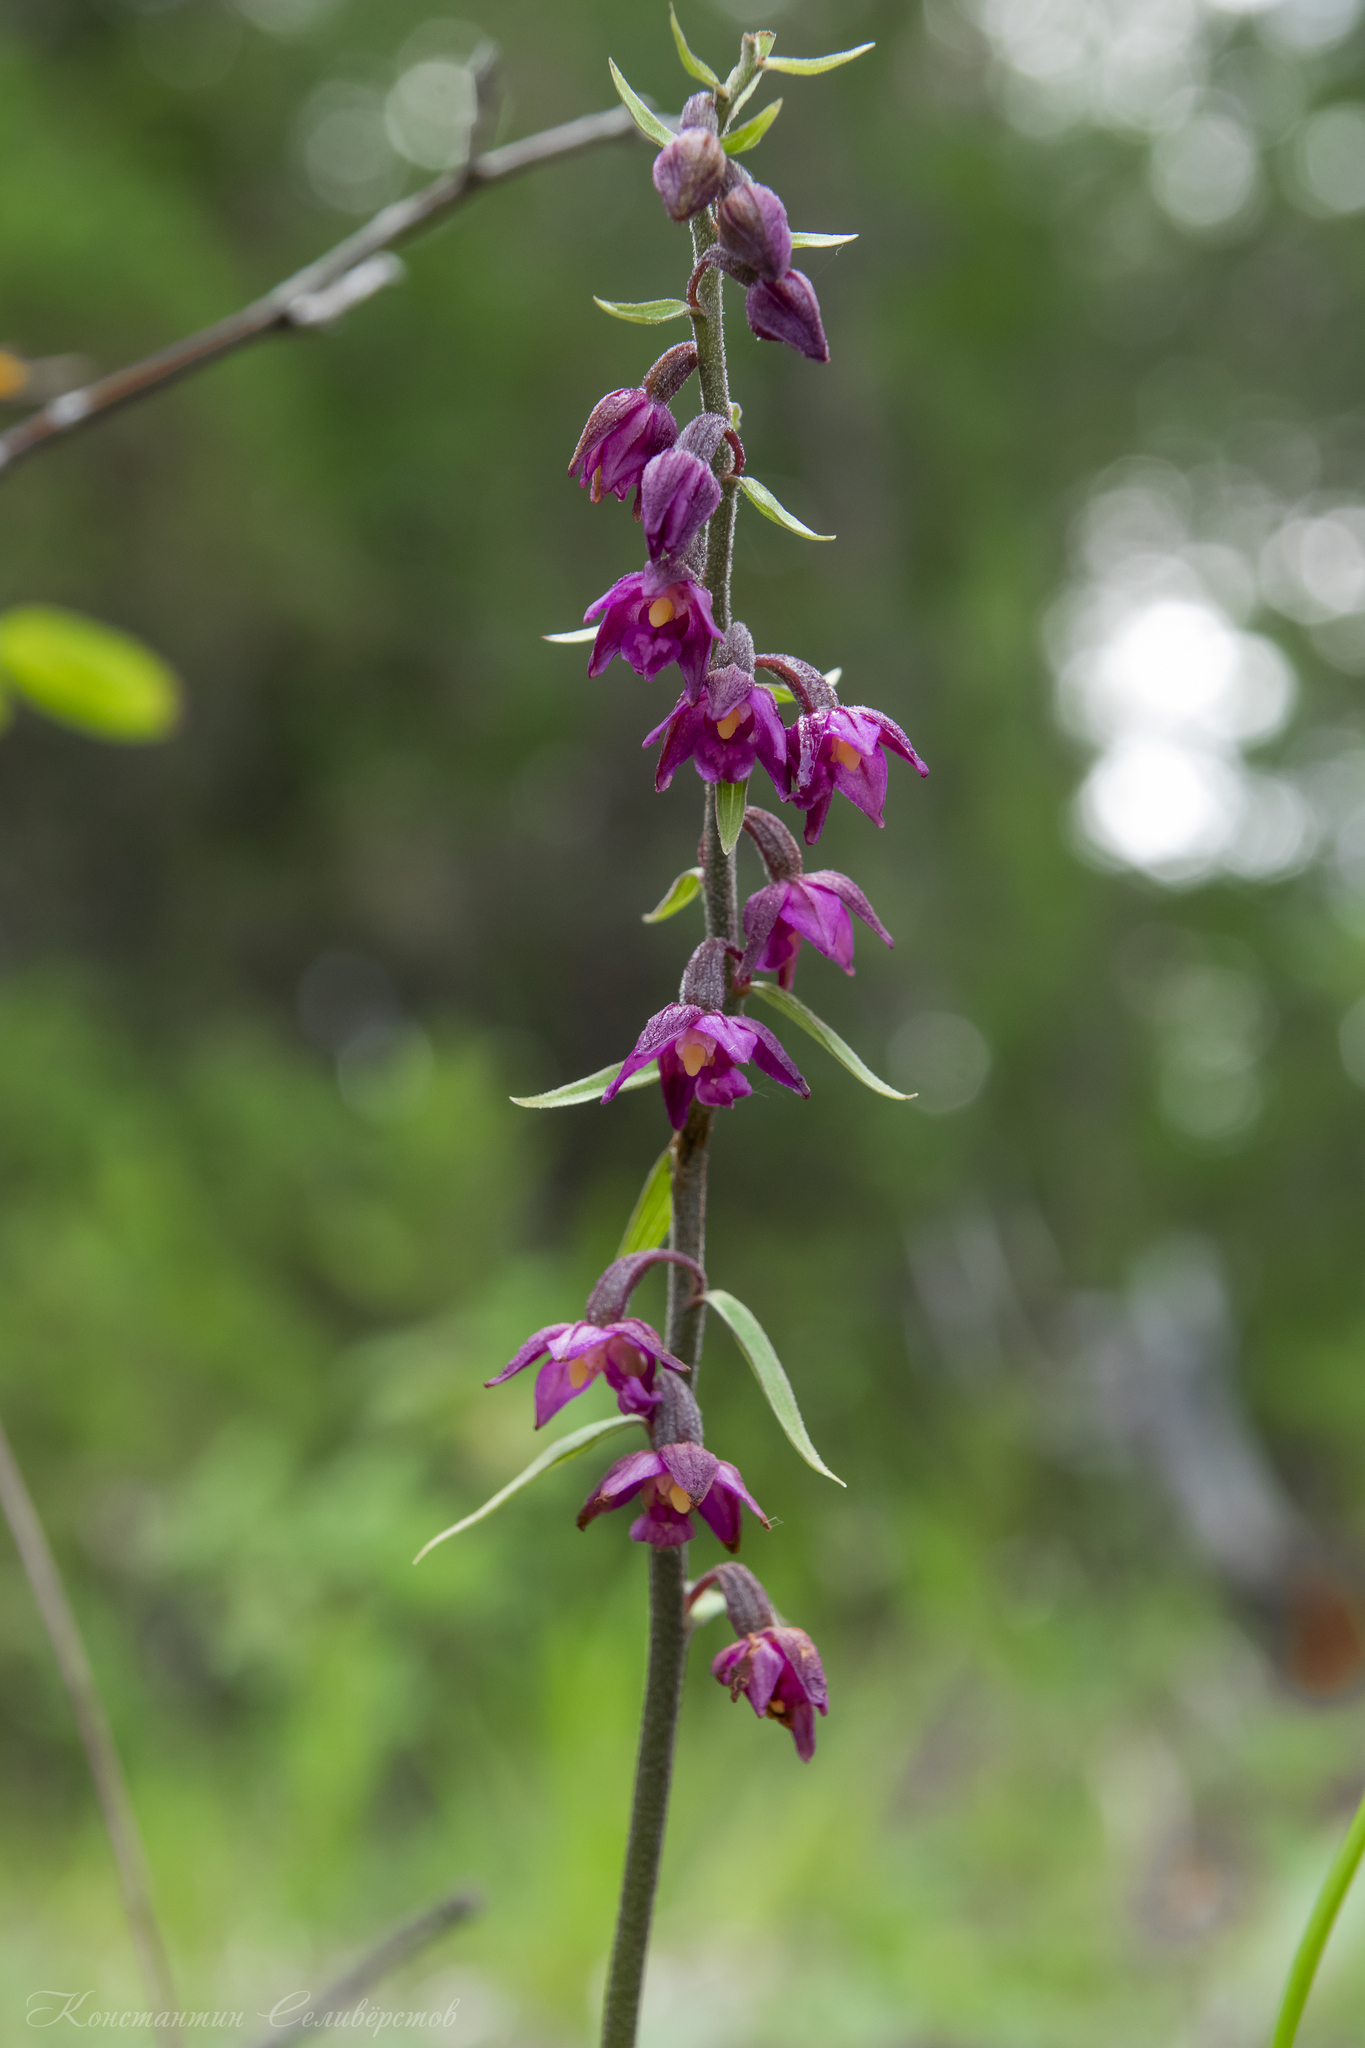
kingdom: Plantae
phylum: Tracheophyta
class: Liliopsida
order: Asparagales
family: Orchidaceae
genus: Epipactis
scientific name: Epipactis atrorubens
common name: Dark-red helleborine
